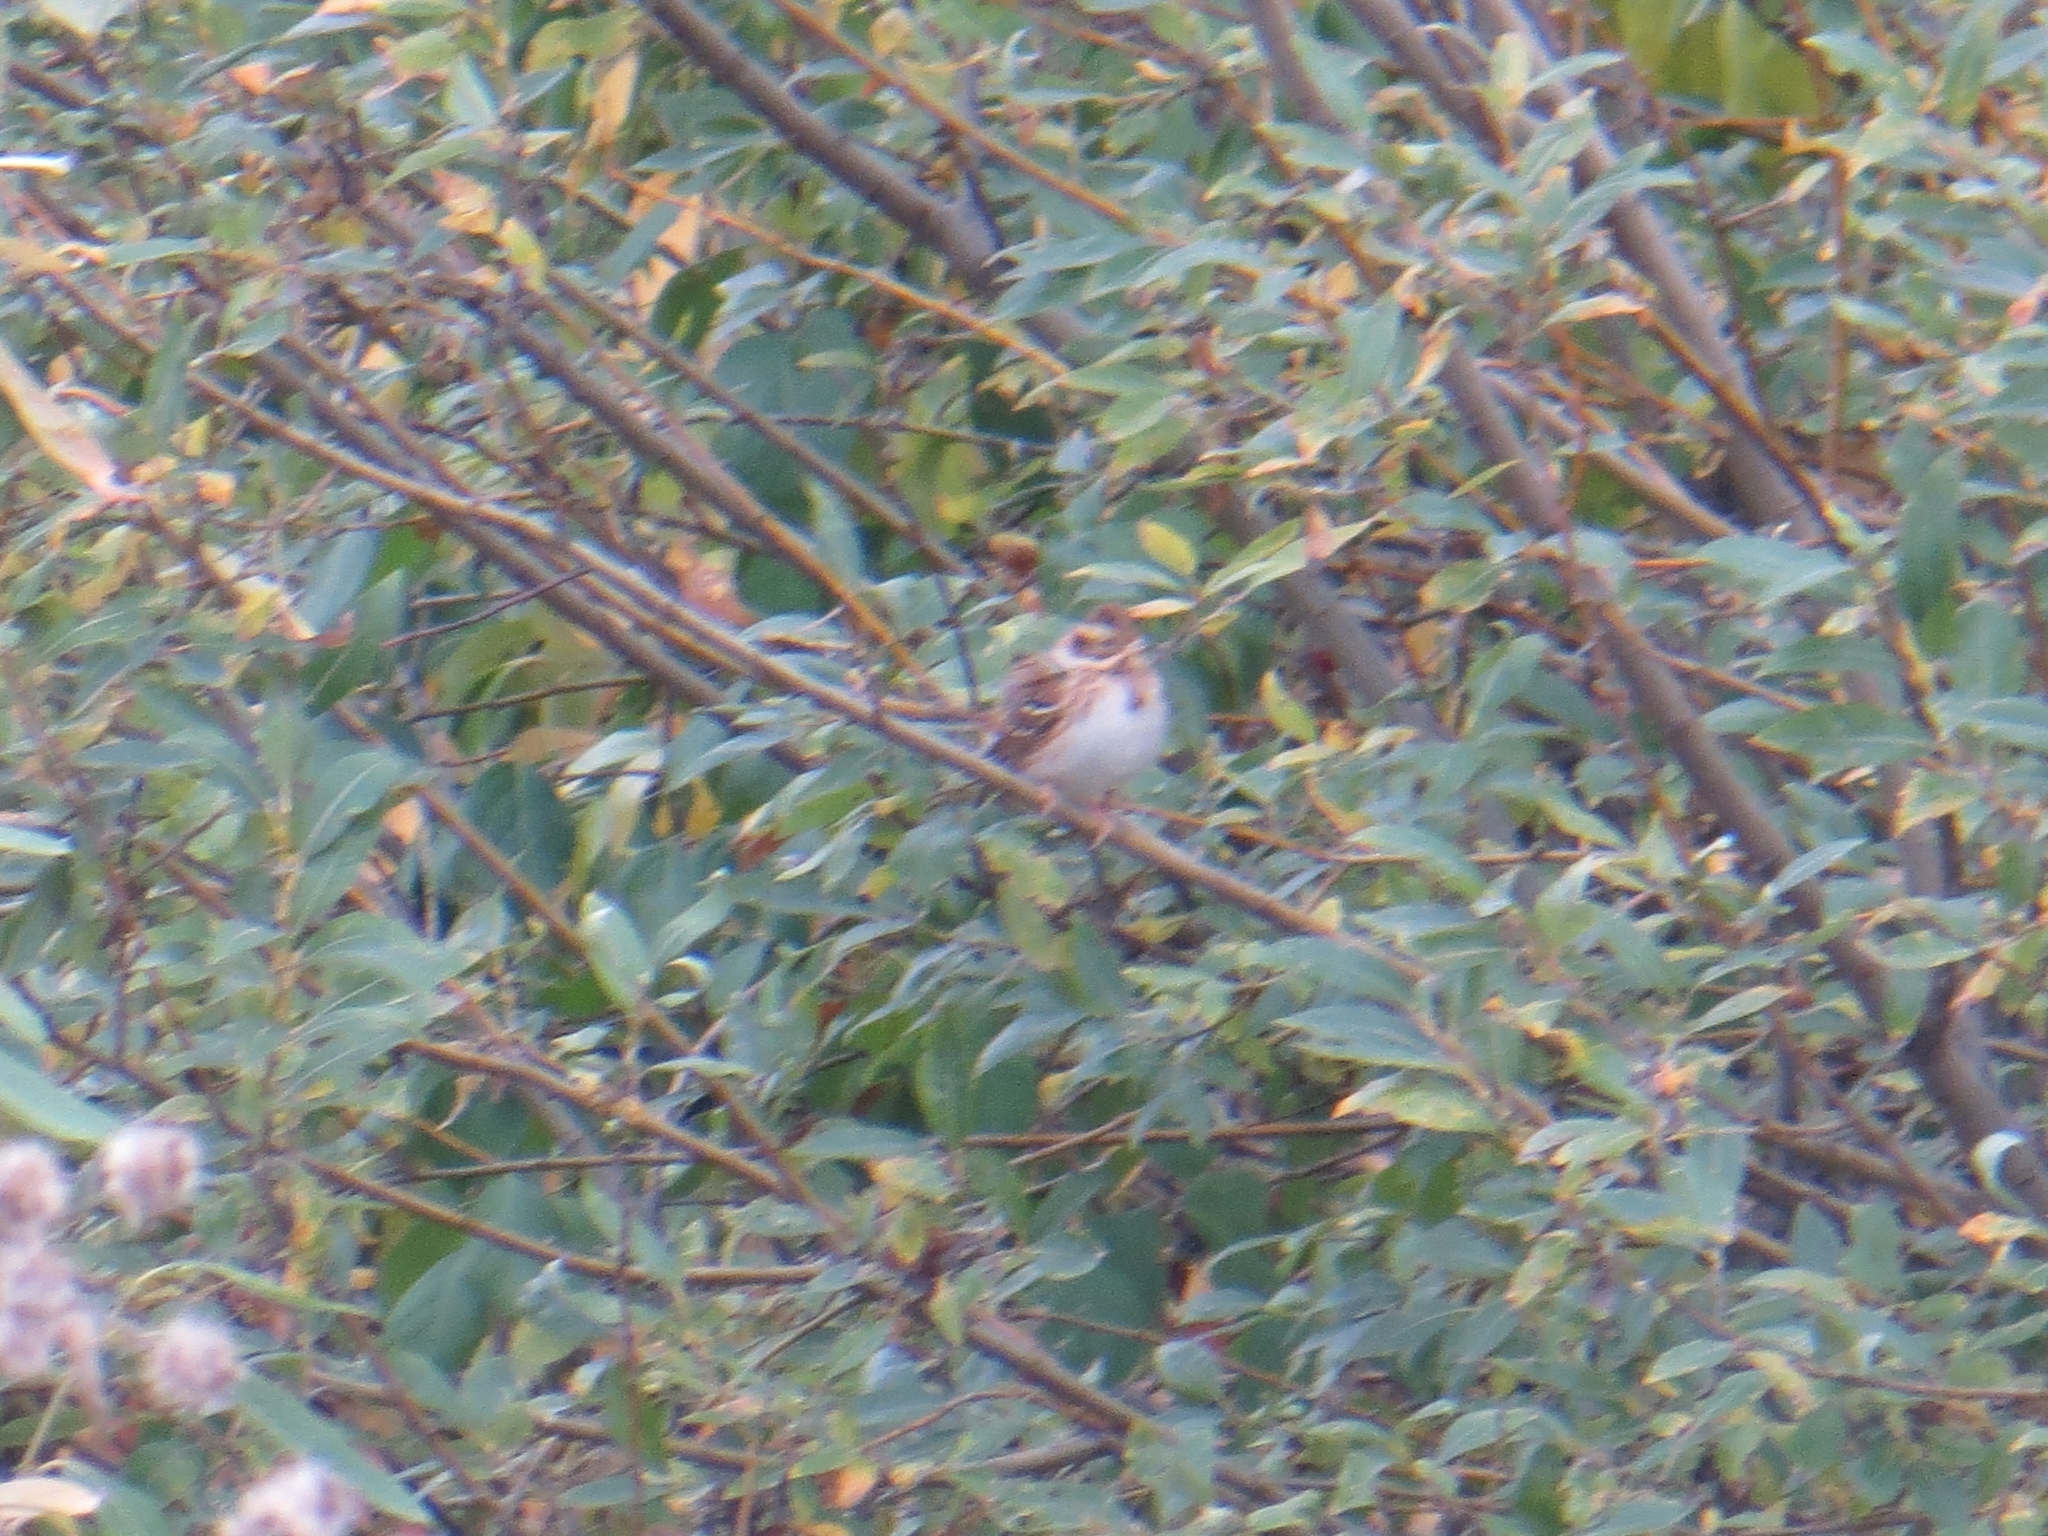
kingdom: Animalia
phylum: Chordata
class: Aves
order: Passeriformes
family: Emberizidae
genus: Emberiza
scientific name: Emberiza rustica
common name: Rustic bunting
